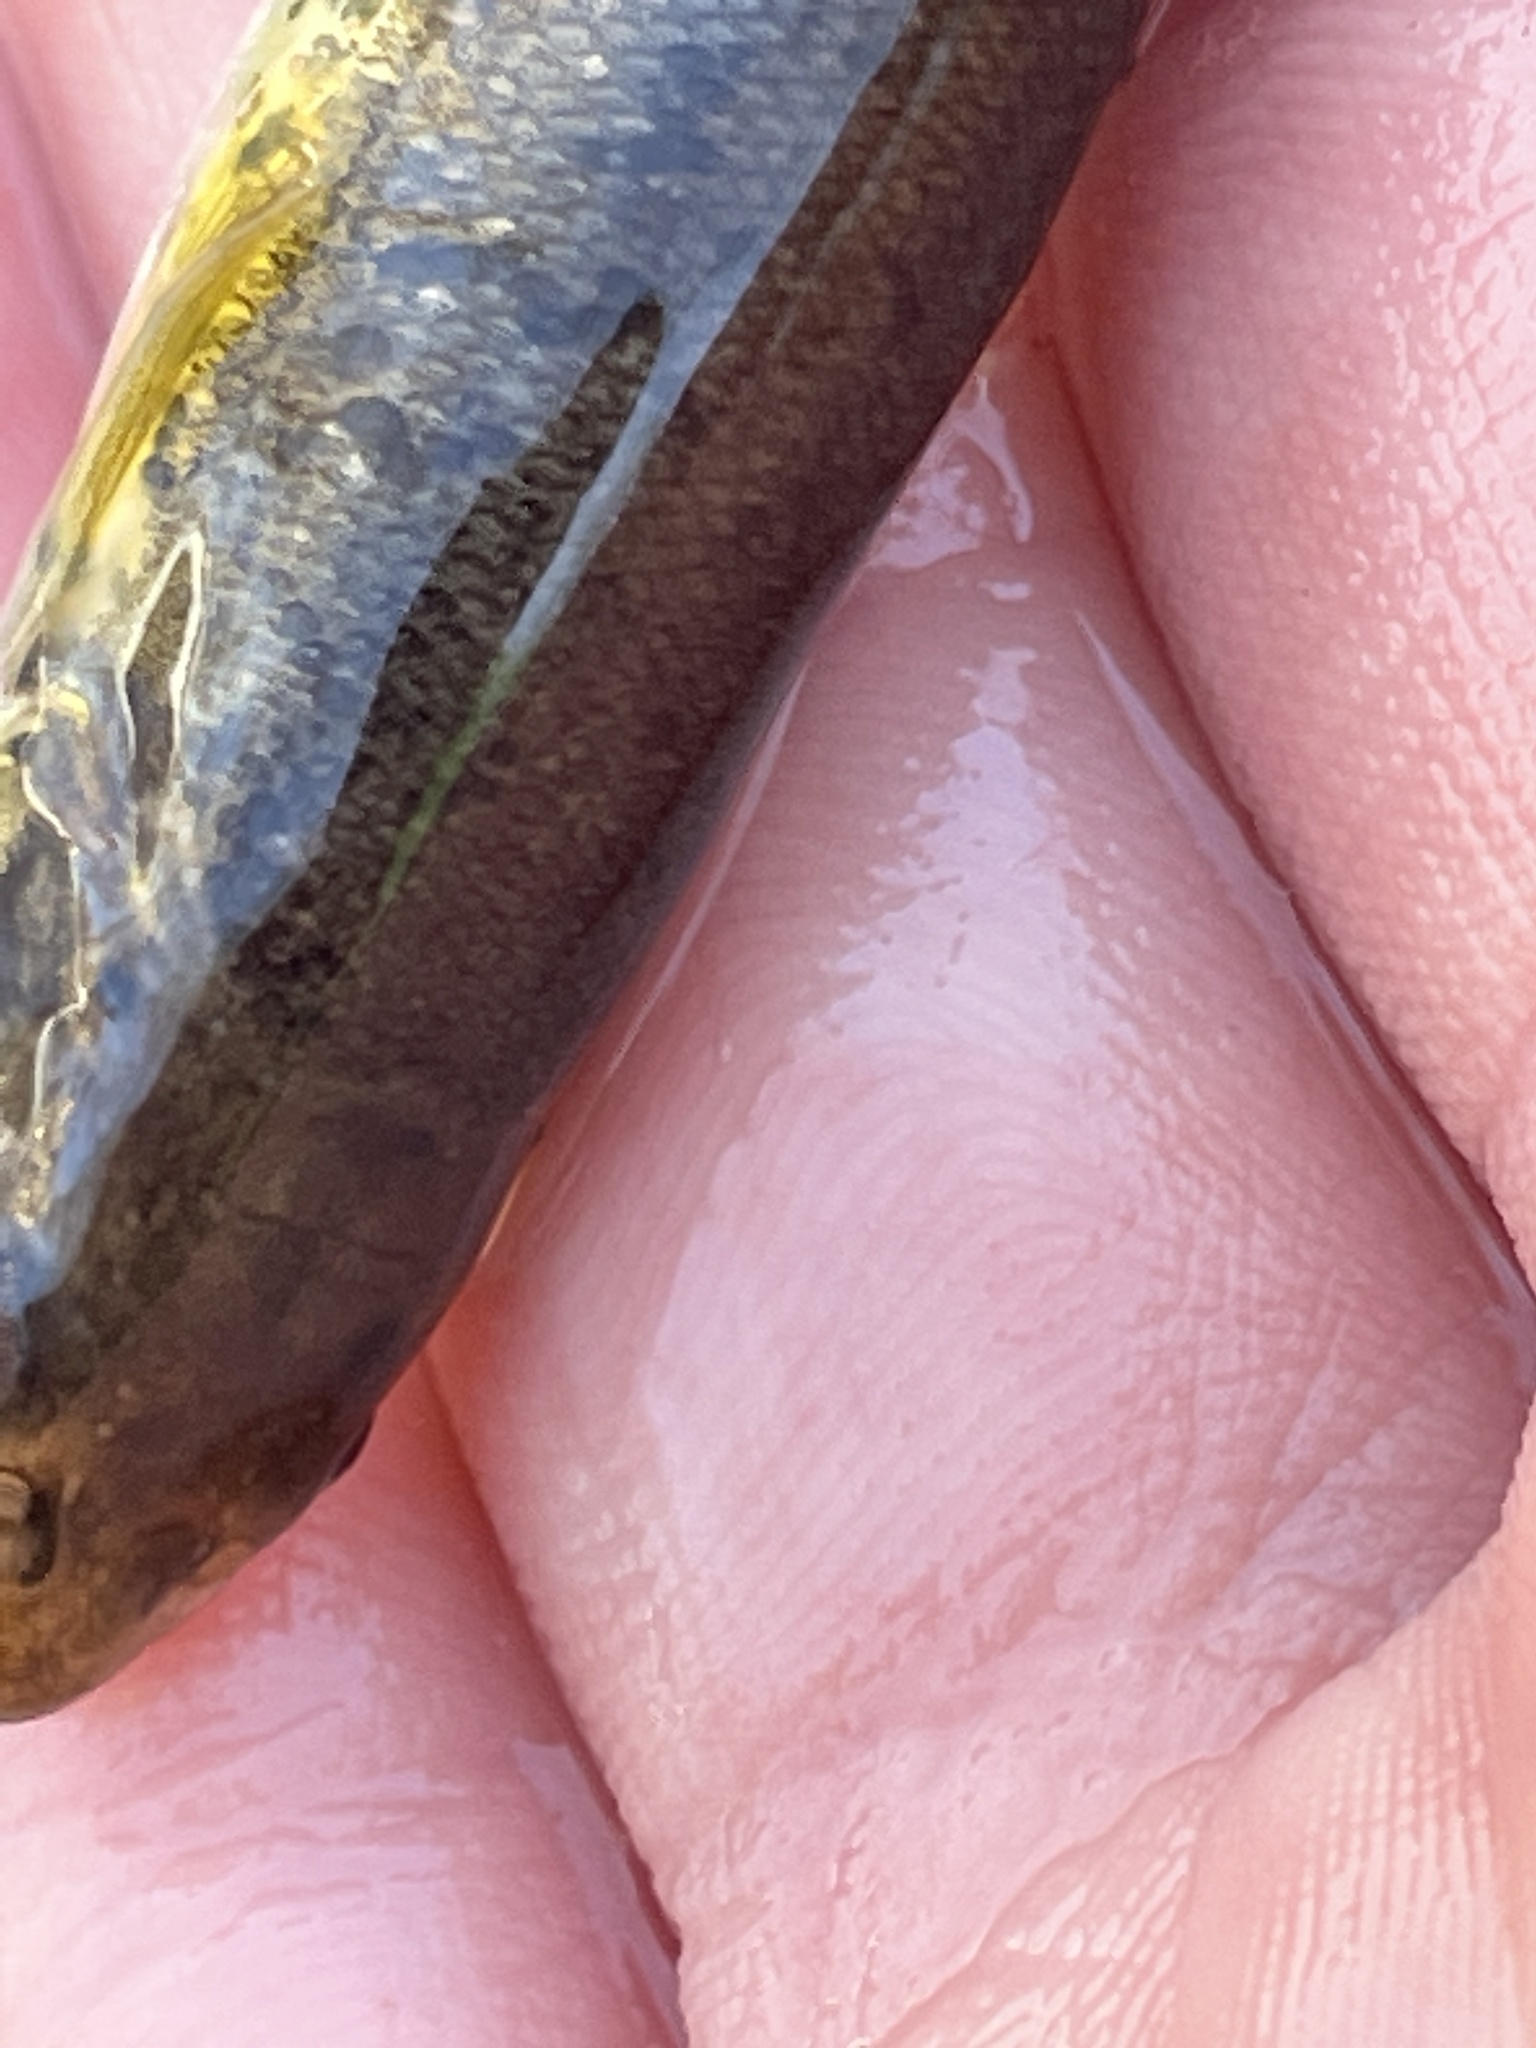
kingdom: Animalia
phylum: Chordata
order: Cypriniformes
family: Cyprinidae
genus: Rhinichthys
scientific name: Rhinichthys obtusus
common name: Western blacknose dace
